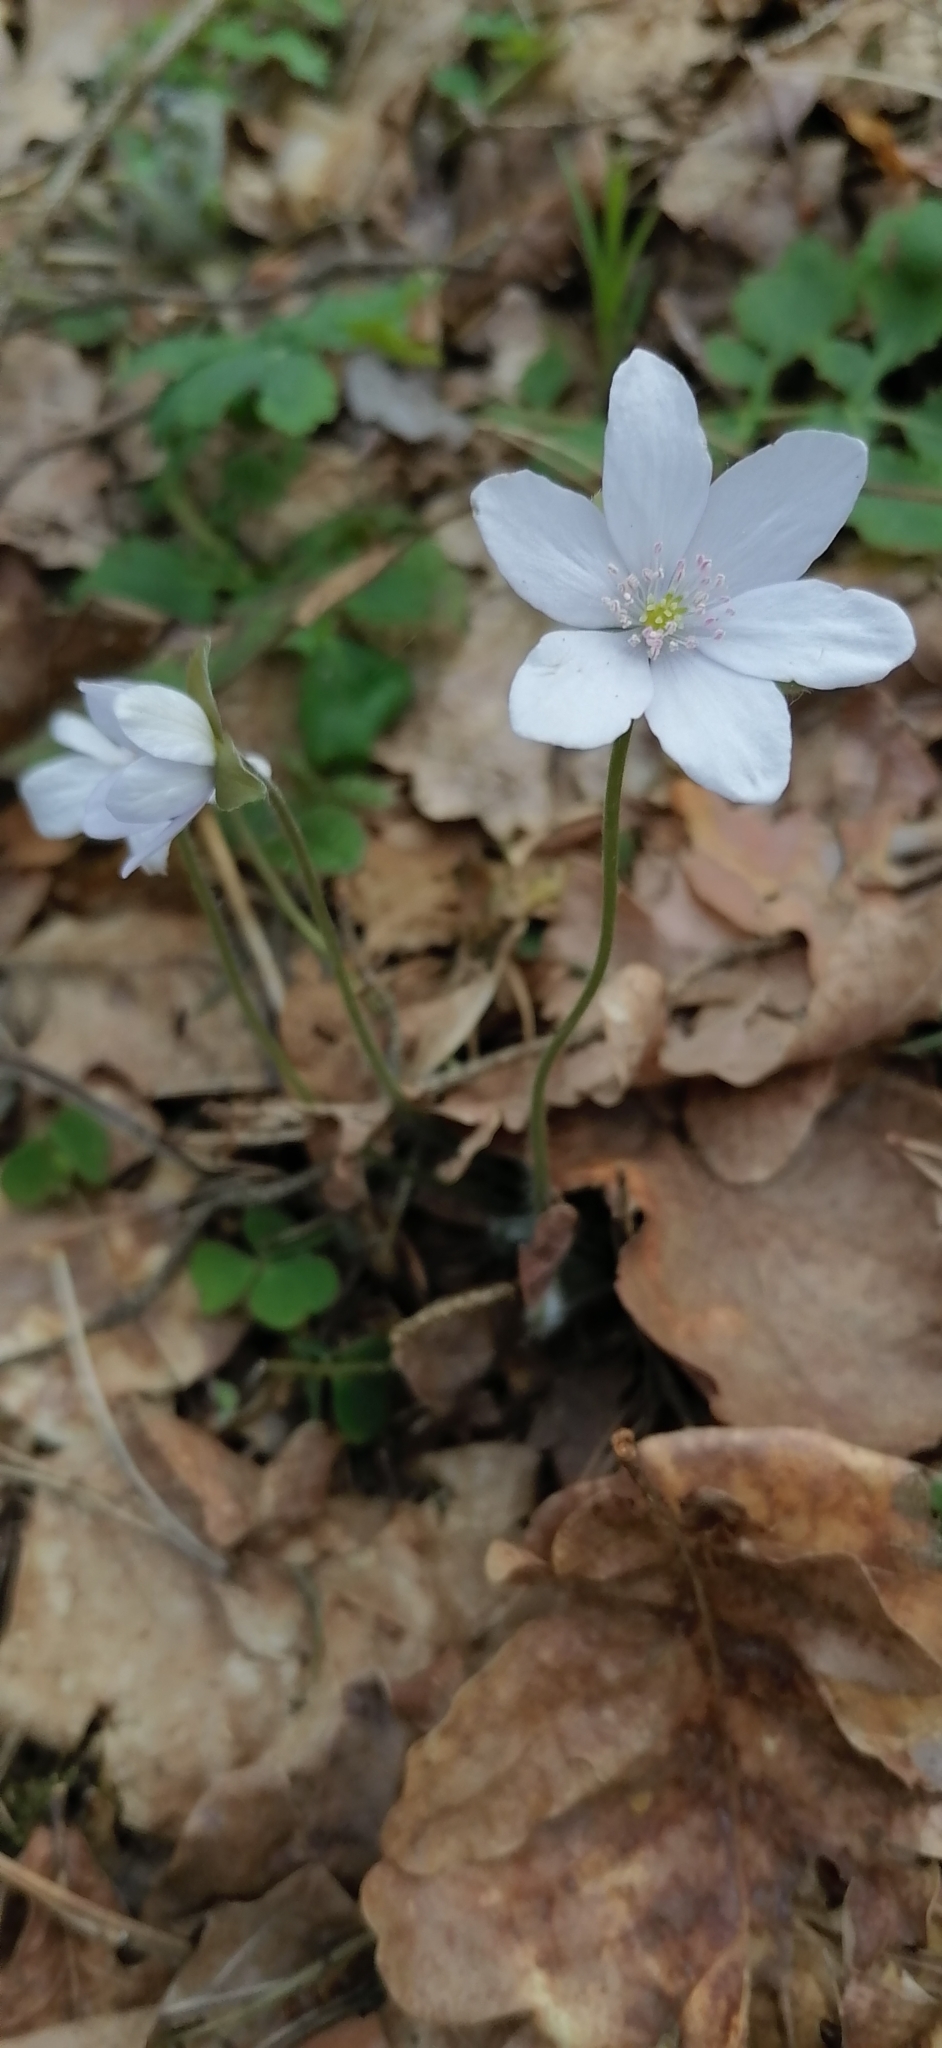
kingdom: Plantae
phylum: Tracheophyta
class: Magnoliopsida
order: Ranunculales
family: Ranunculaceae
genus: Hepatica
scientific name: Hepatica nobilis
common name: Liverleaf
